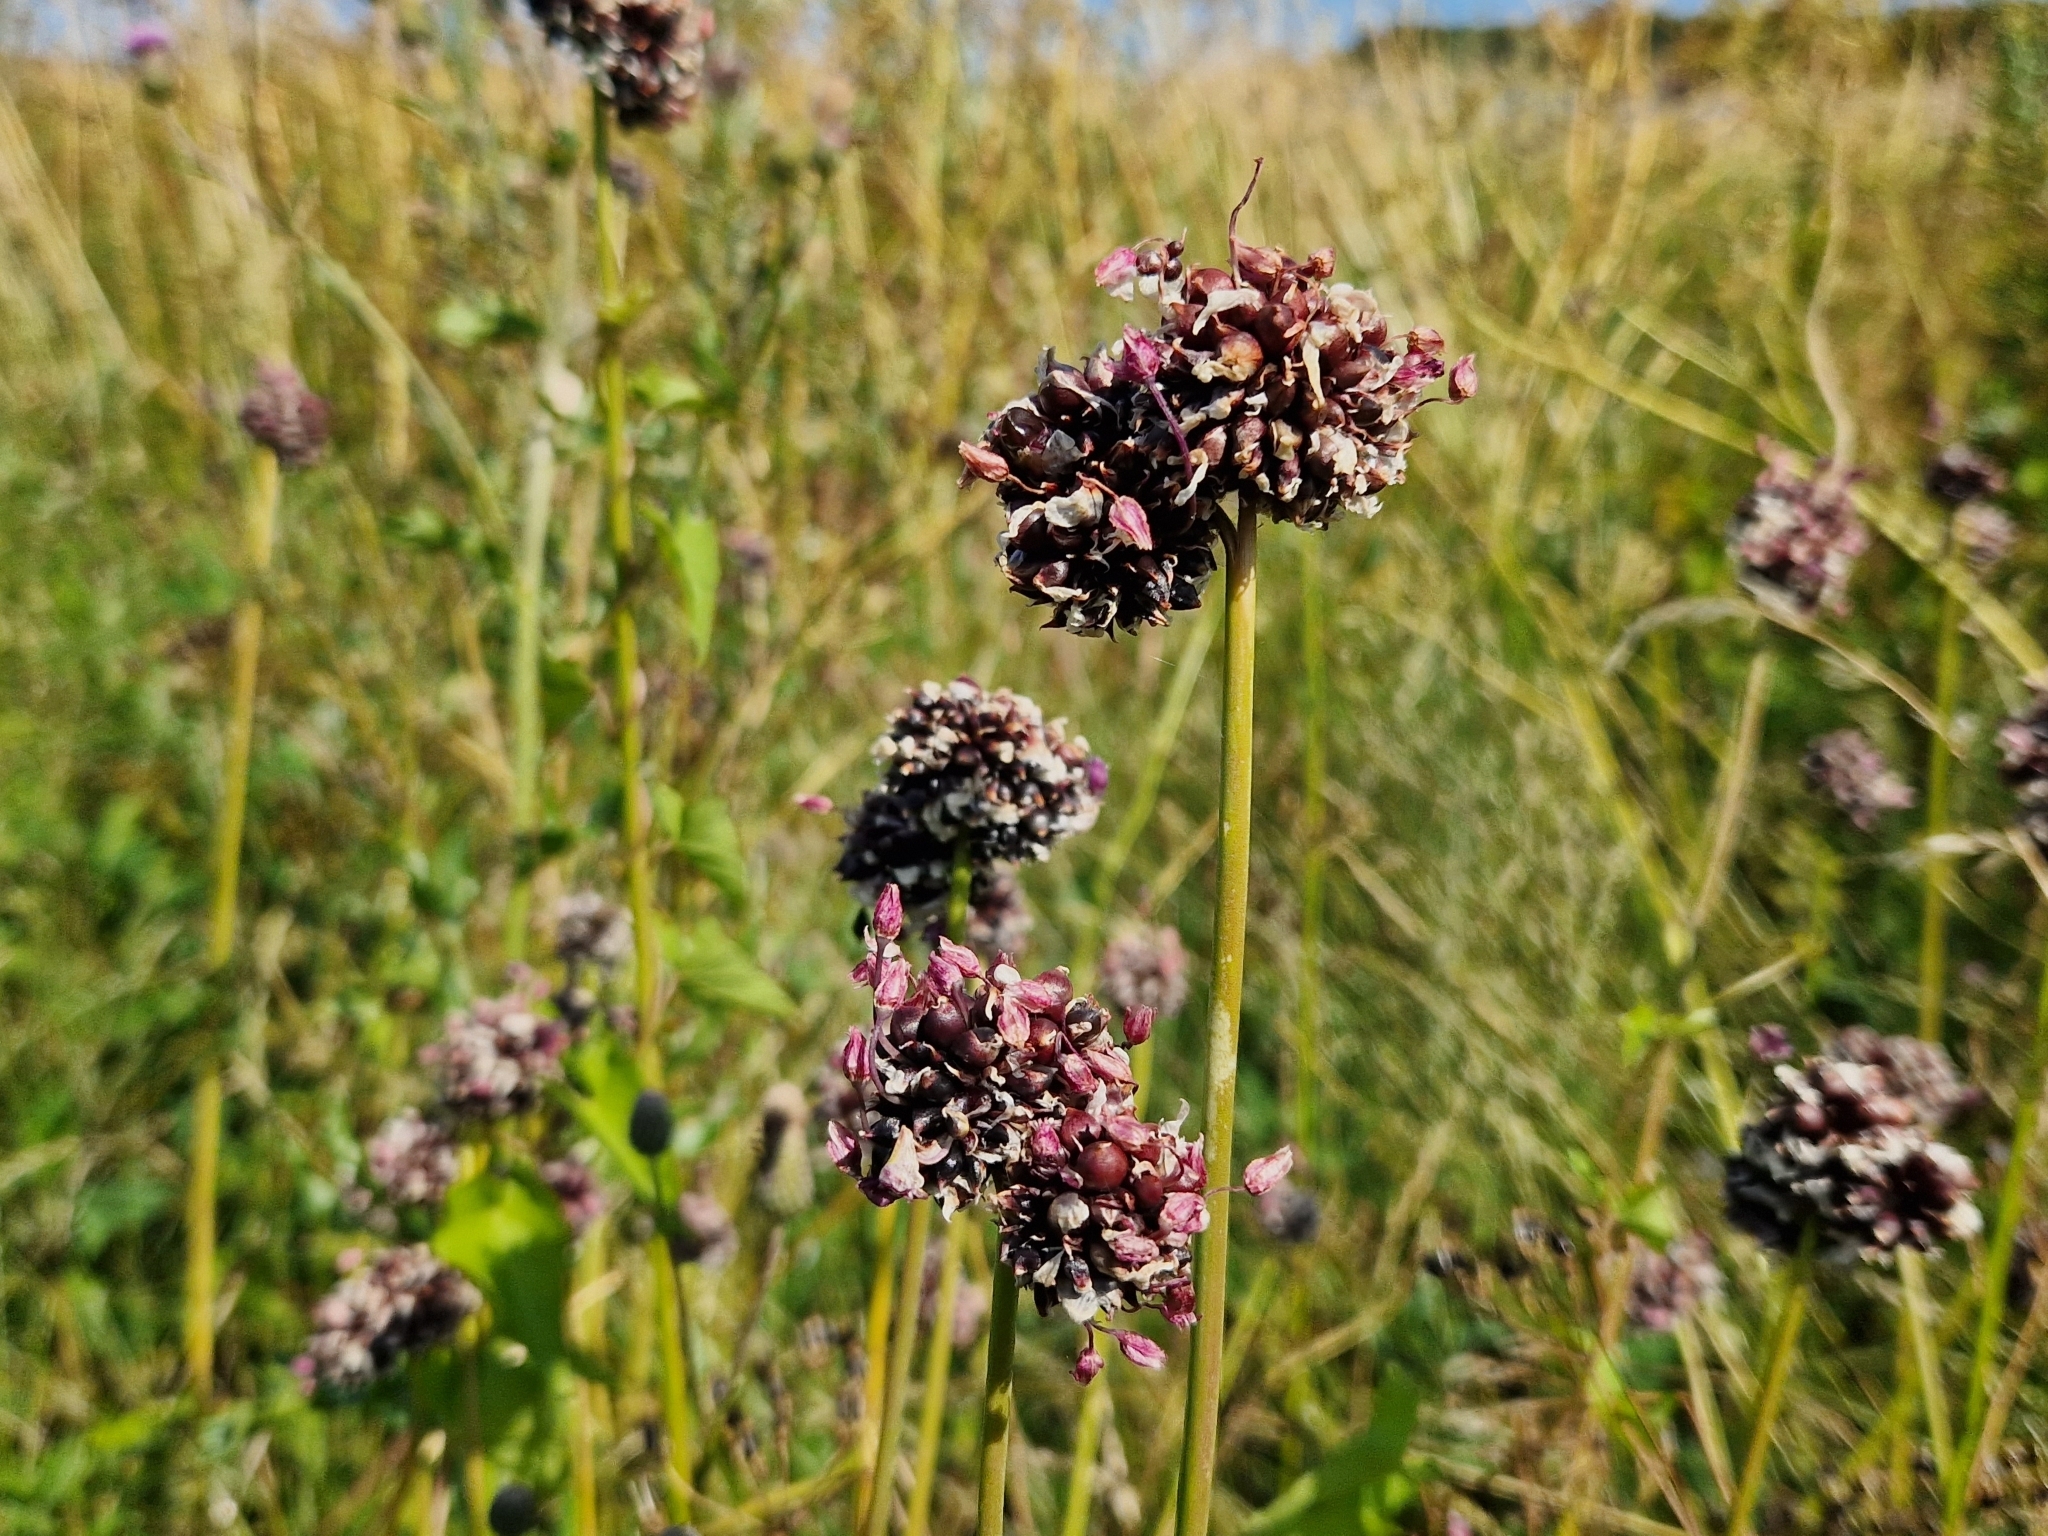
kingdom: Plantae
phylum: Tracheophyta
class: Liliopsida
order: Asparagales
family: Amaryllidaceae
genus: Allium
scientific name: Allium scorodoprasum
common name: Sand leek
